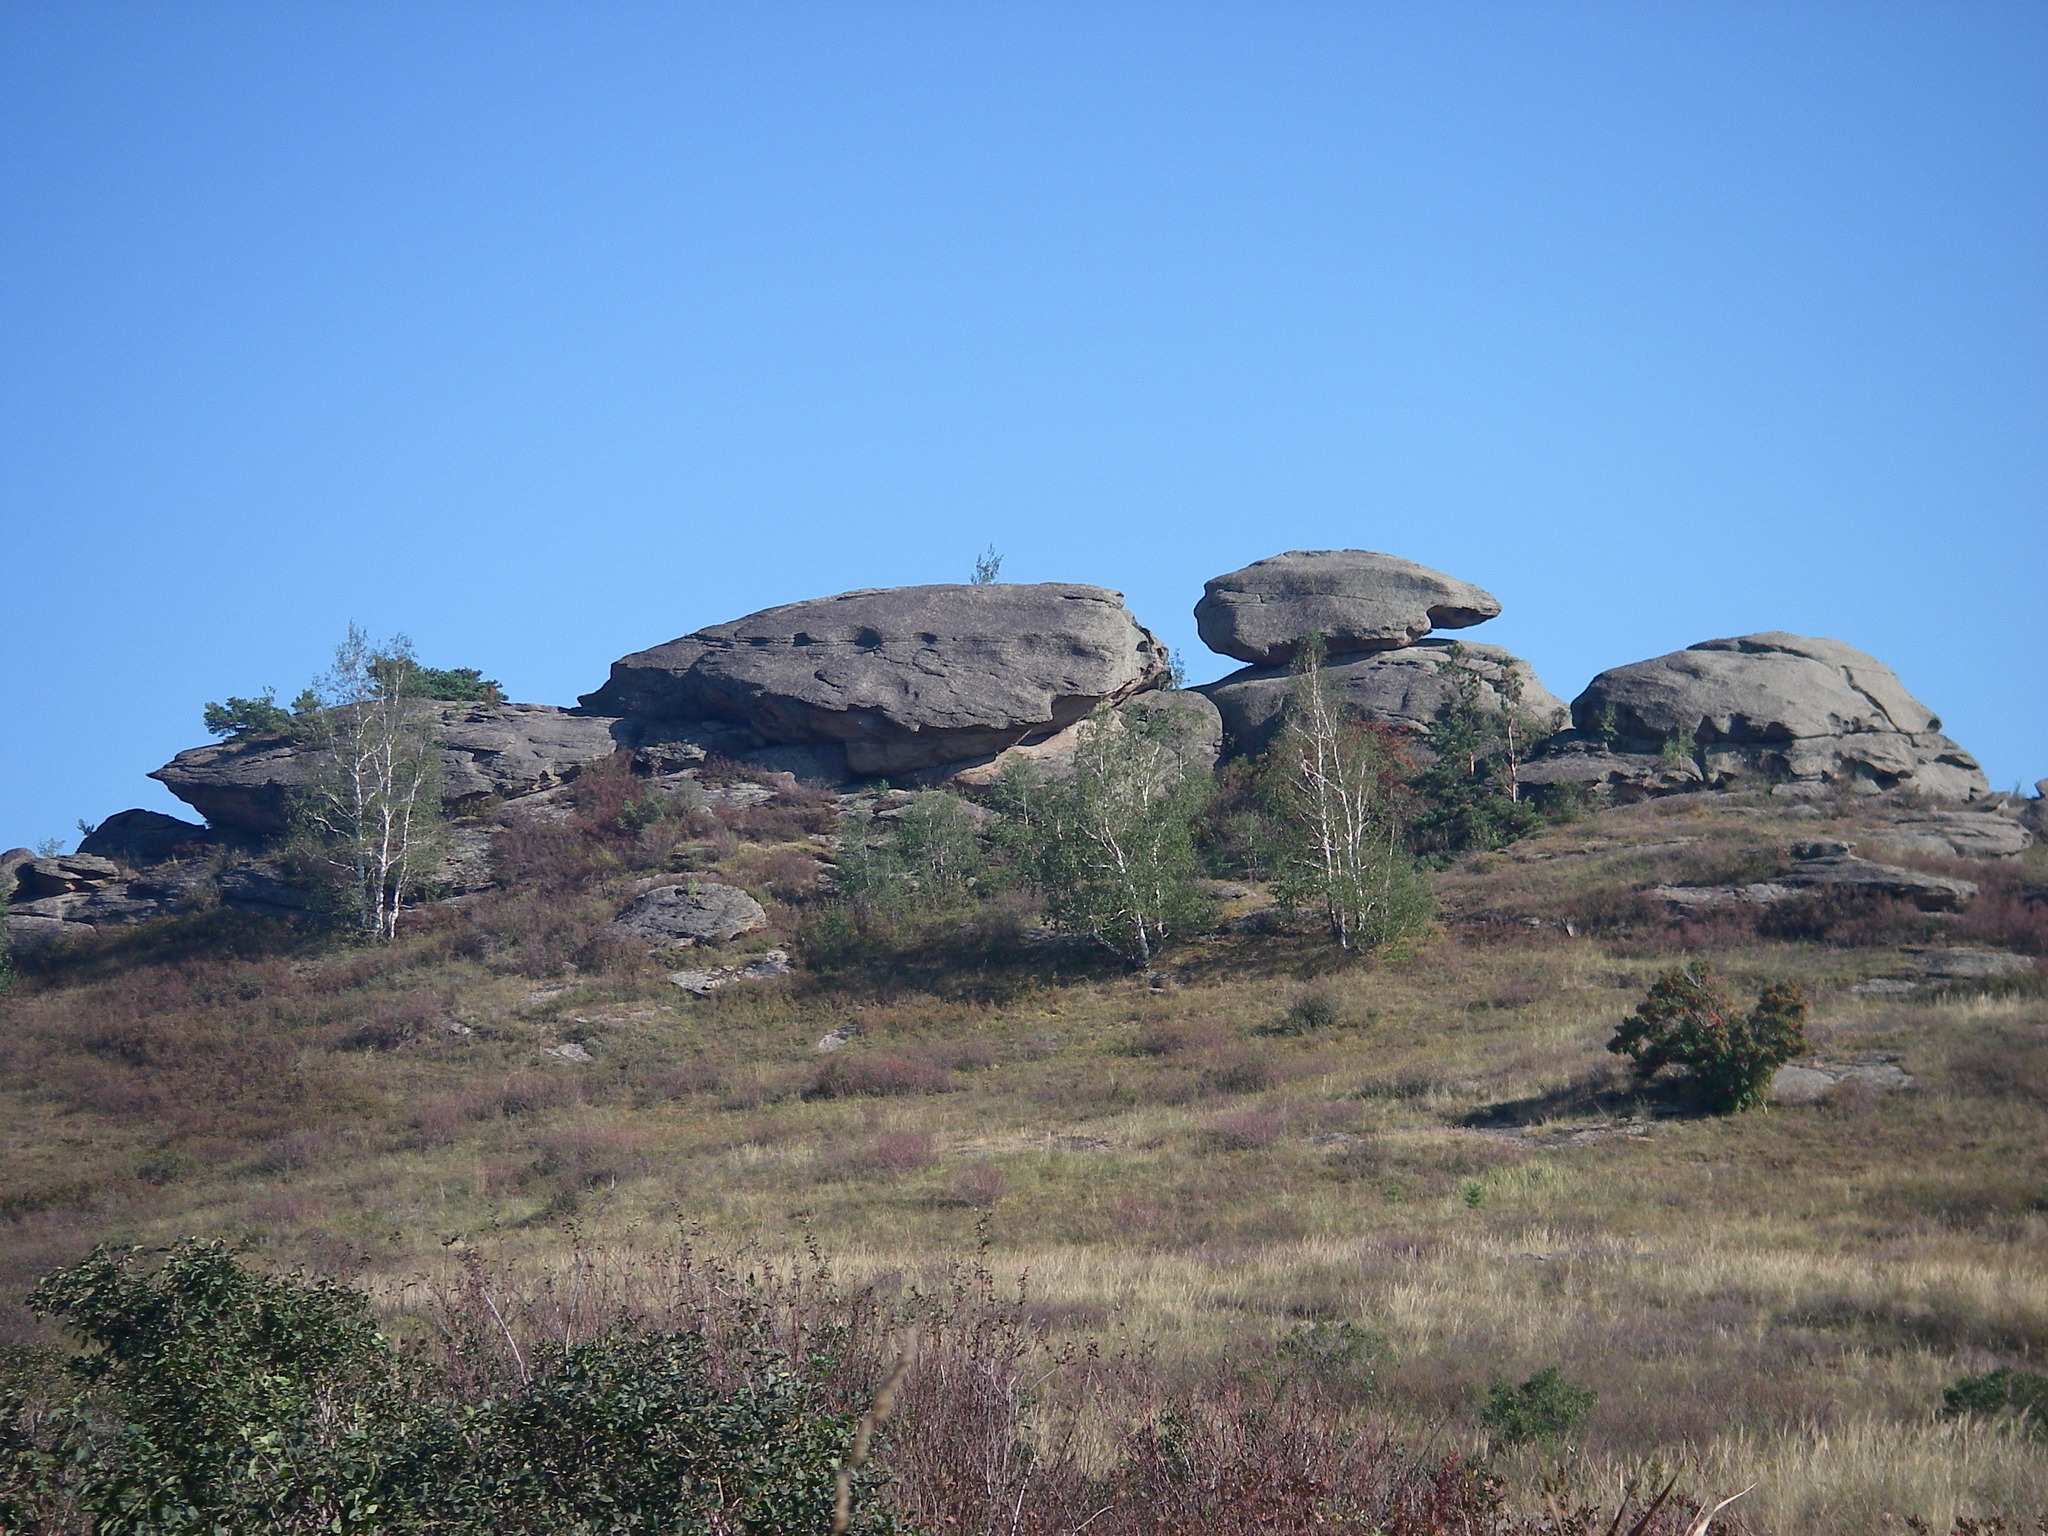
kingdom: Plantae
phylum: Tracheophyta
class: Pinopsida
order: Pinales
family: Pinaceae
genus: Pinus
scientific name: Pinus sylvestris
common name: Scots pine
